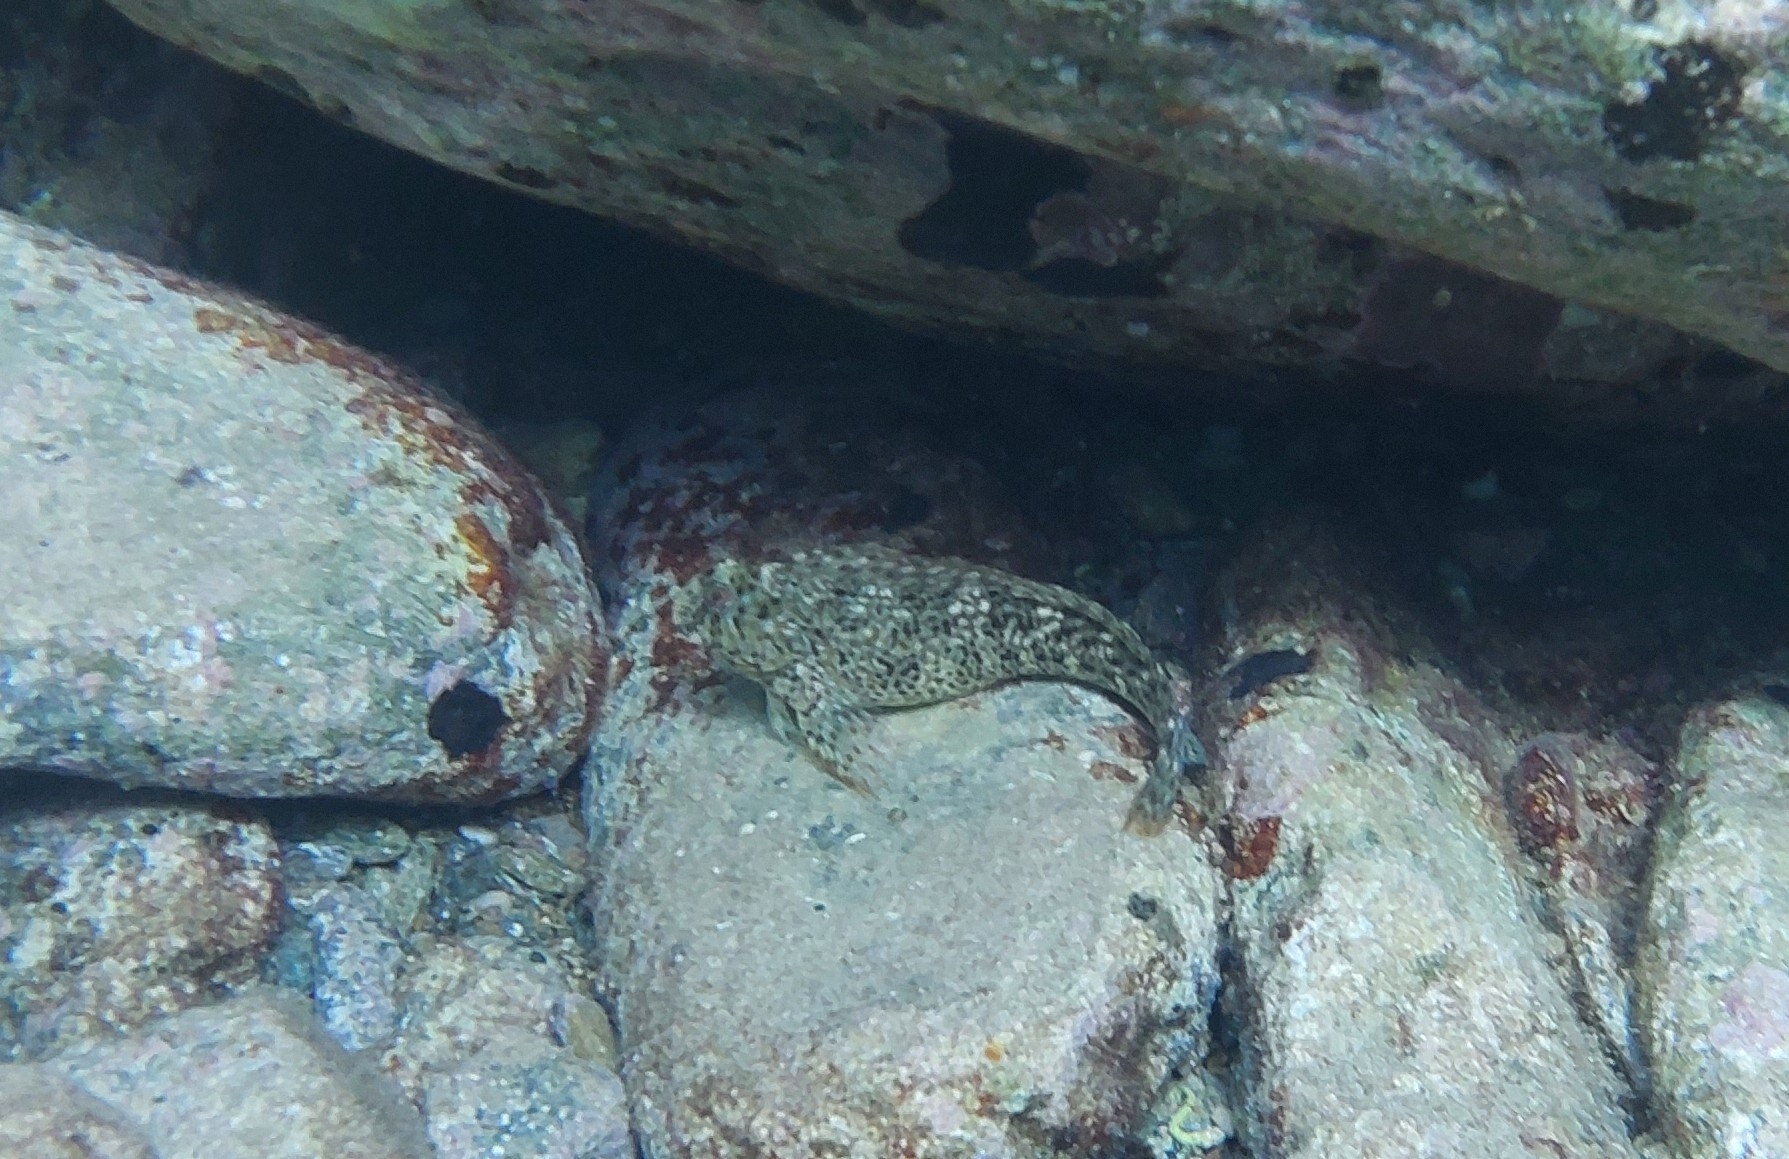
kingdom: Animalia
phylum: Chordata
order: Perciformes
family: Blenniidae
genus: Parablennius
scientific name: Parablennius sanguinolentus
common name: Black sea blenny
